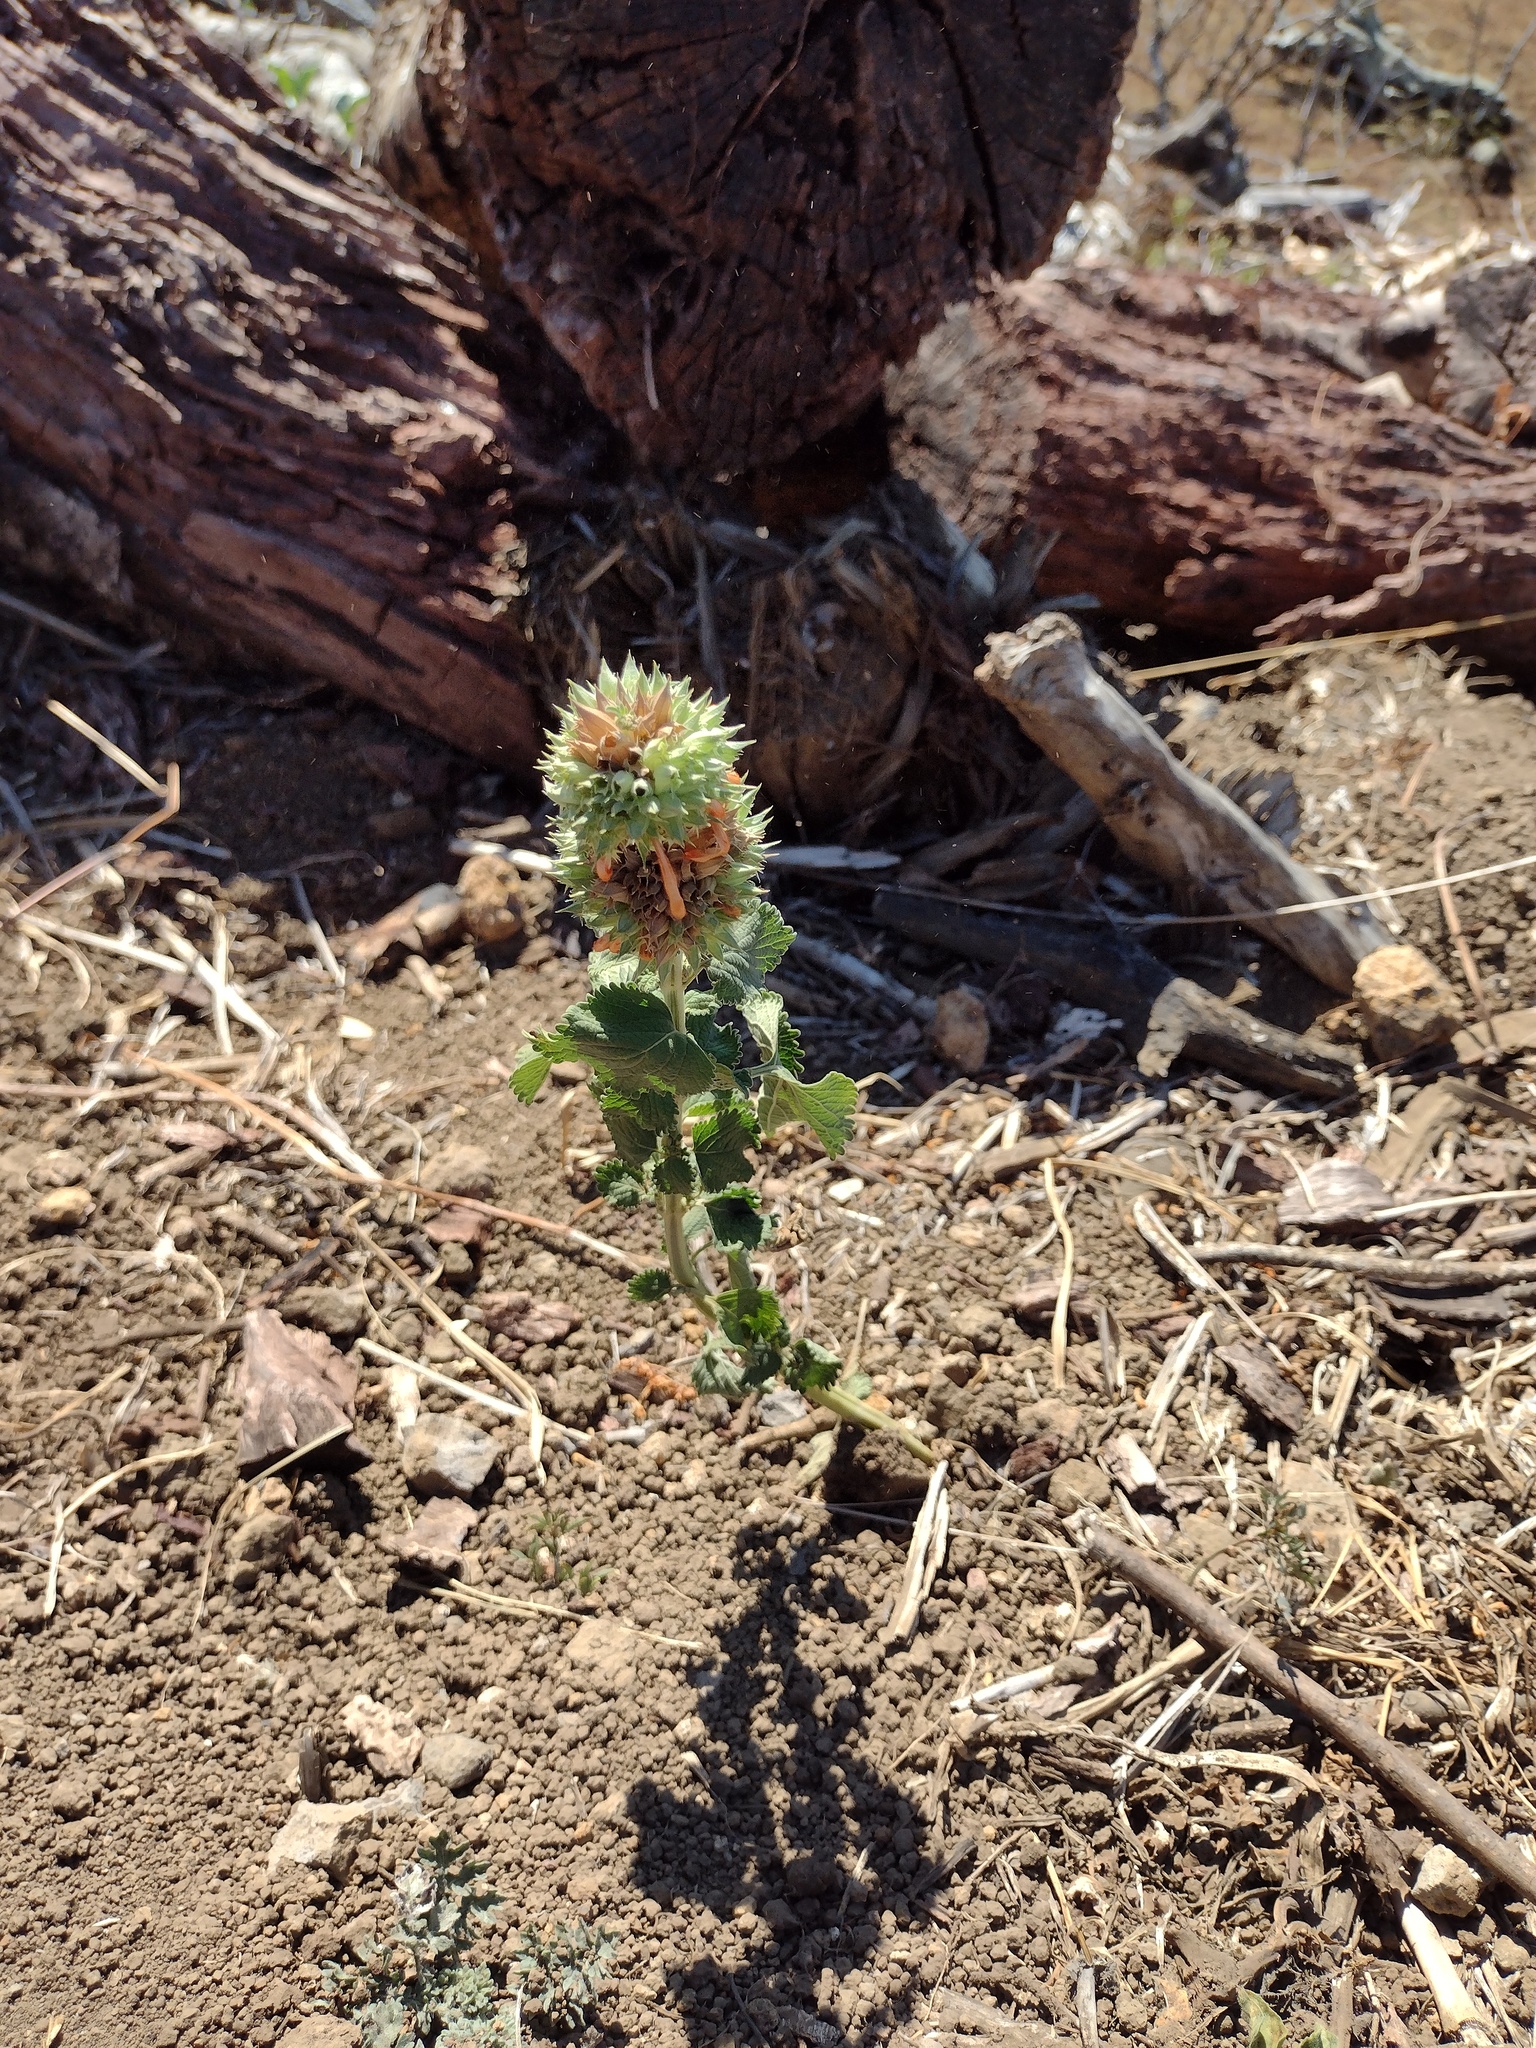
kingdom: Plantae
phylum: Tracheophyta
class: Magnoliopsida
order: Lamiales
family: Lamiaceae
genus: Leonotis
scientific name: Leonotis nepetifolia
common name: Christmas candlestick
